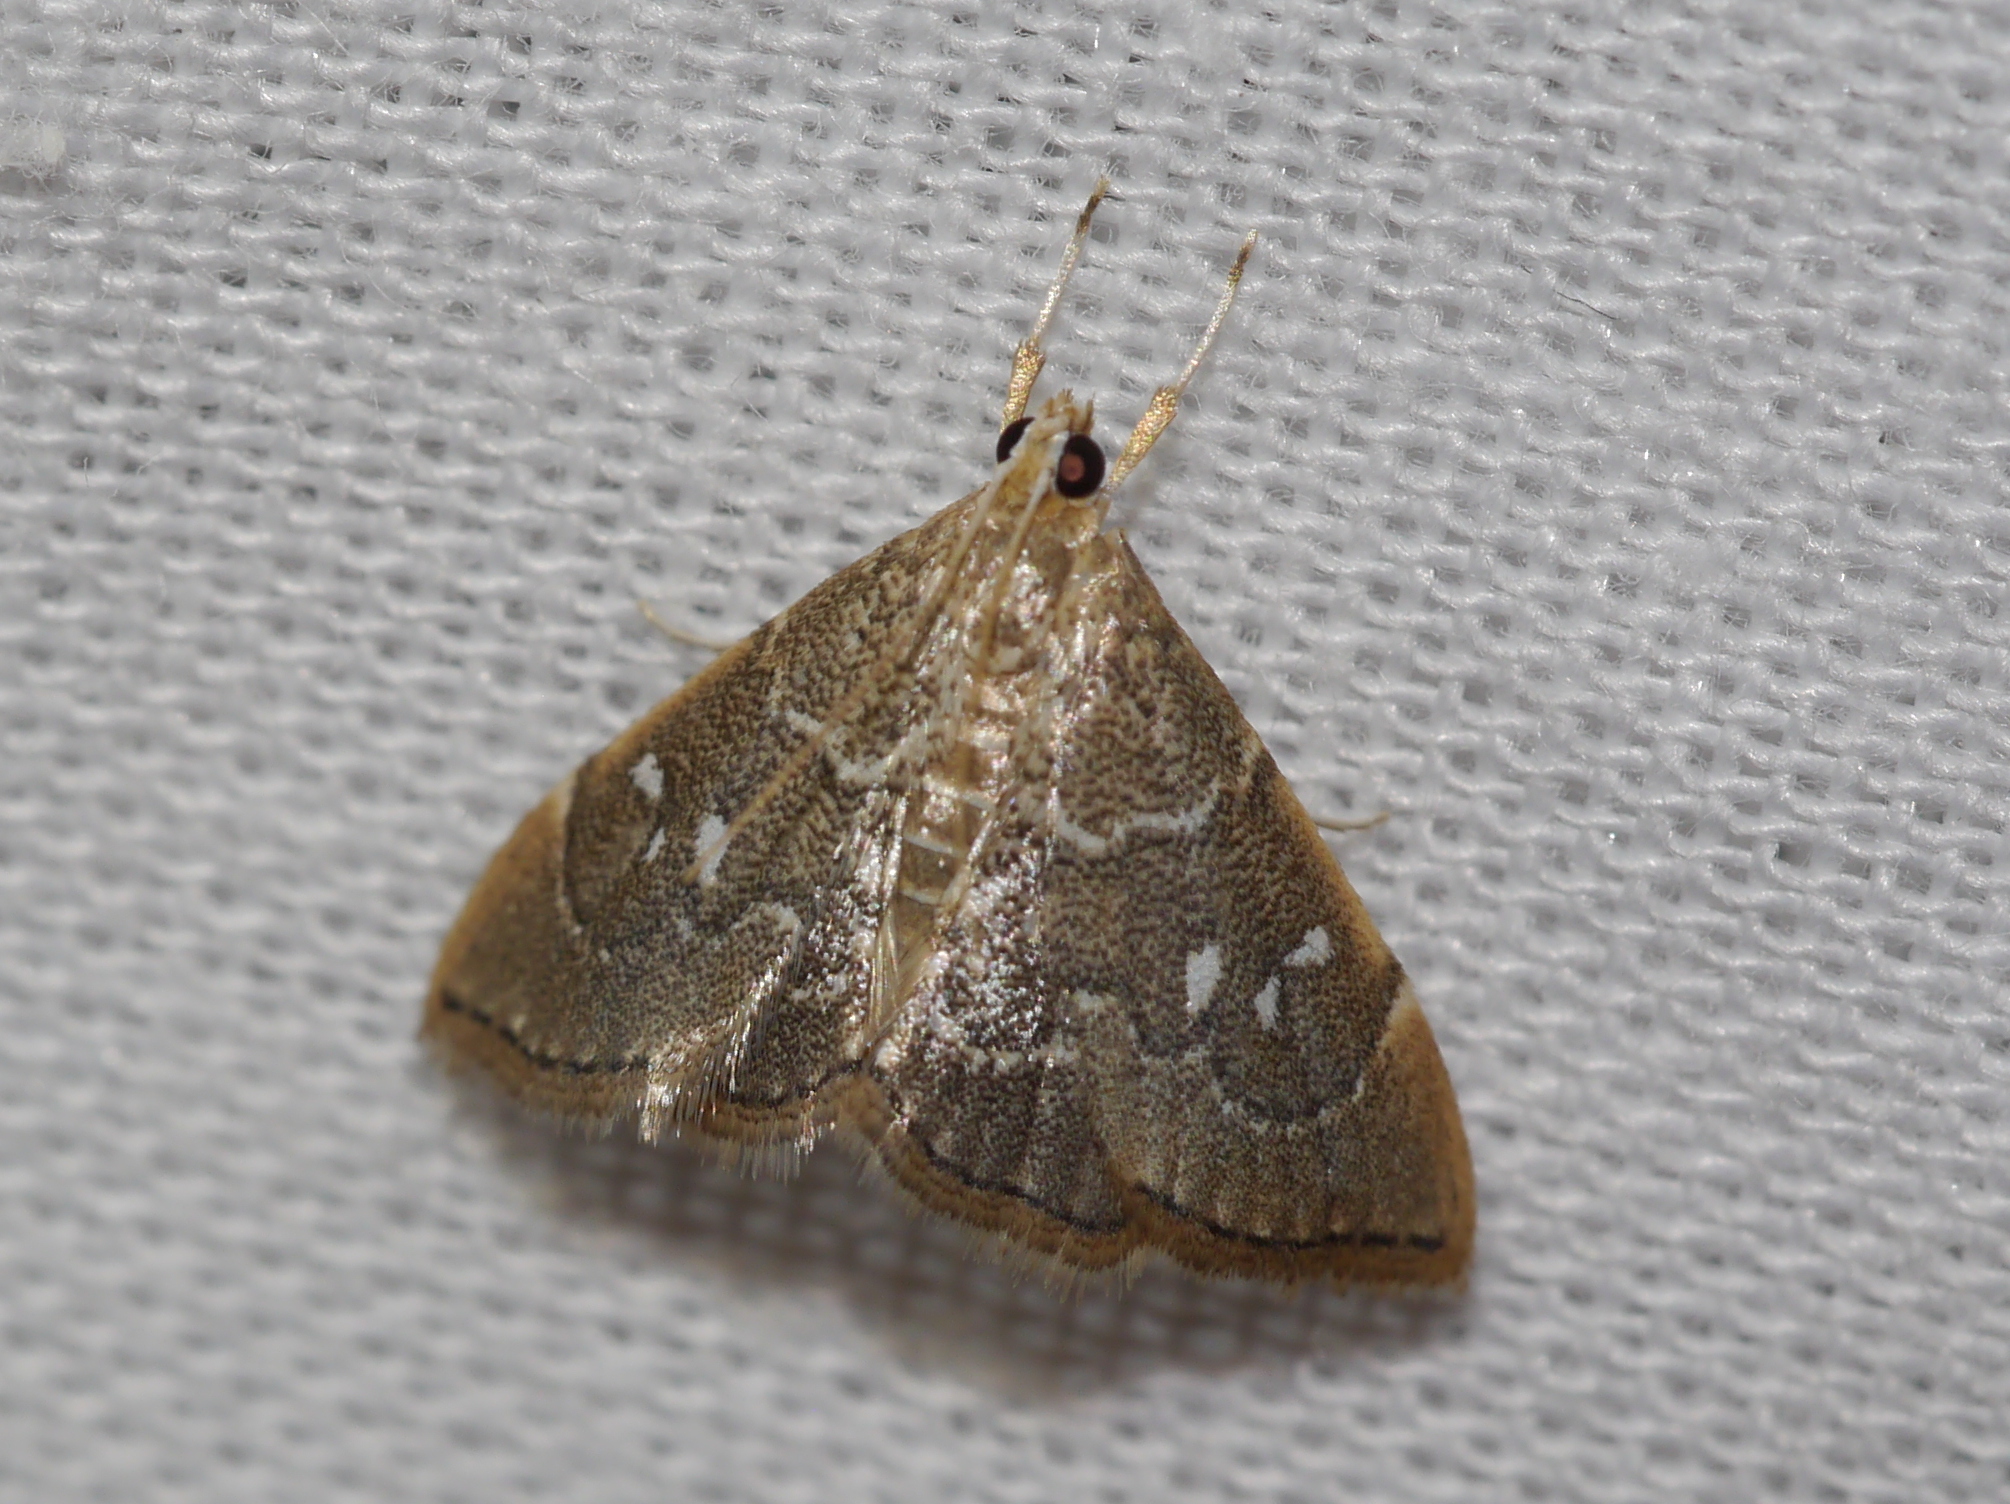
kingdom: Animalia
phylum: Arthropoda
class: Insecta
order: Lepidoptera
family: Crambidae
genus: Nephrogramma
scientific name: Nephrogramma separata
